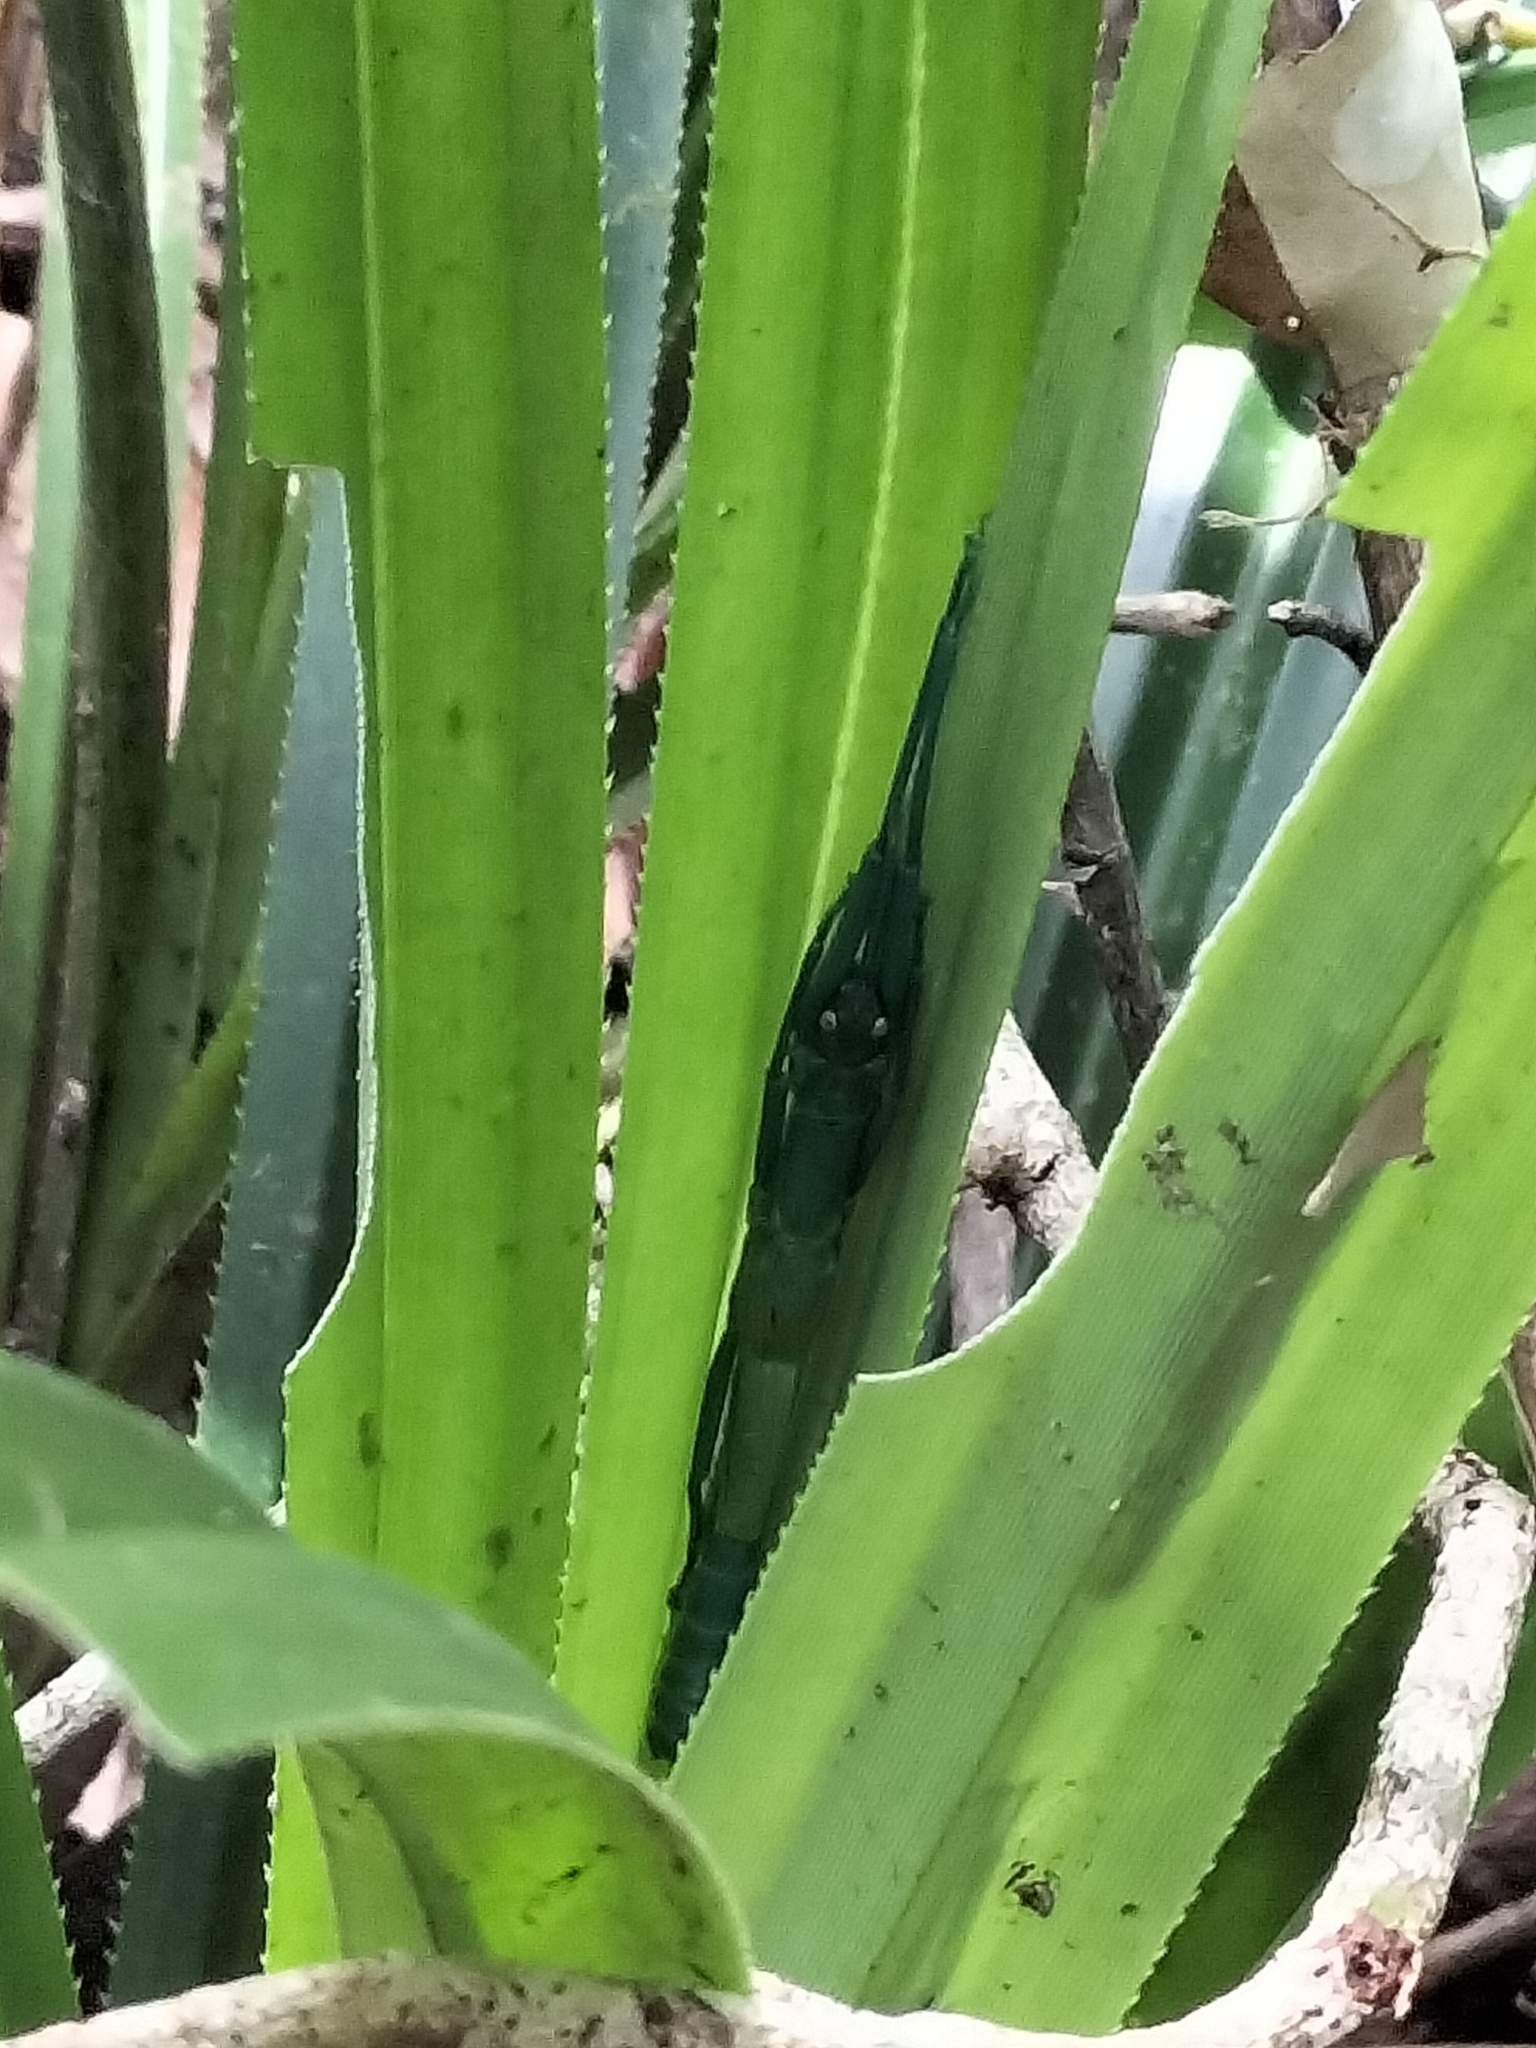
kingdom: Animalia
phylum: Arthropoda
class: Insecta
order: Phasmida
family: Phasmatidae
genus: Megacrania
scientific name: Megacrania batesii
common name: Peppermint stick-insect
